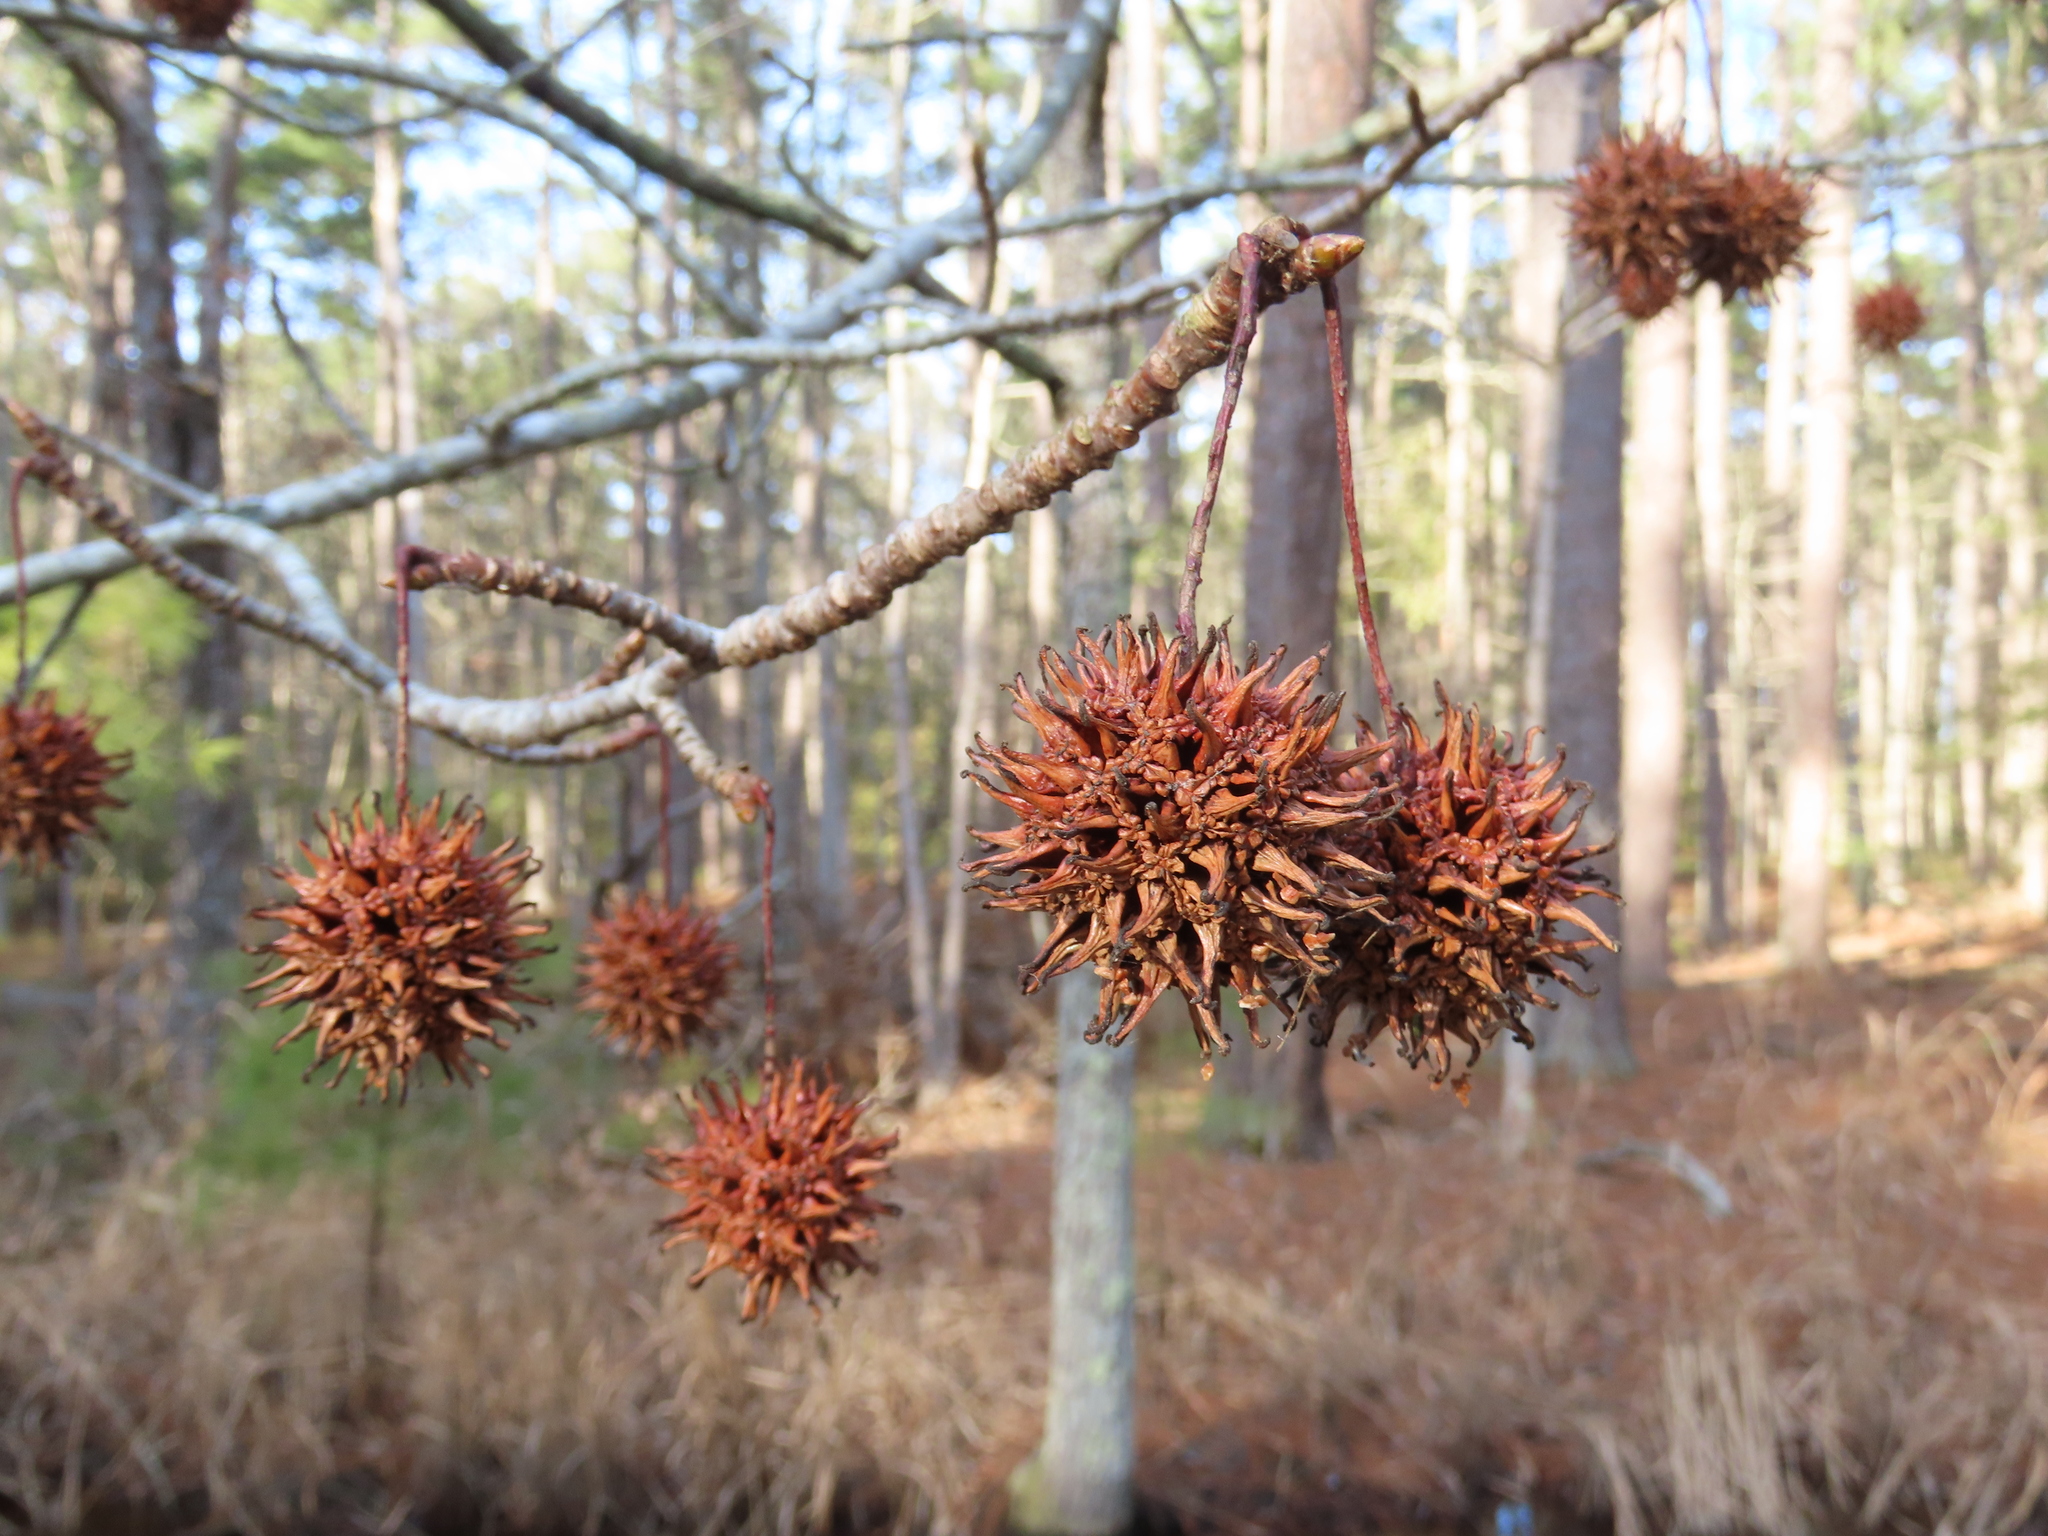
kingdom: Plantae
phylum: Tracheophyta
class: Magnoliopsida
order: Saxifragales
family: Altingiaceae
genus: Liquidambar
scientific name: Liquidambar styraciflua
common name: Sweet gum
